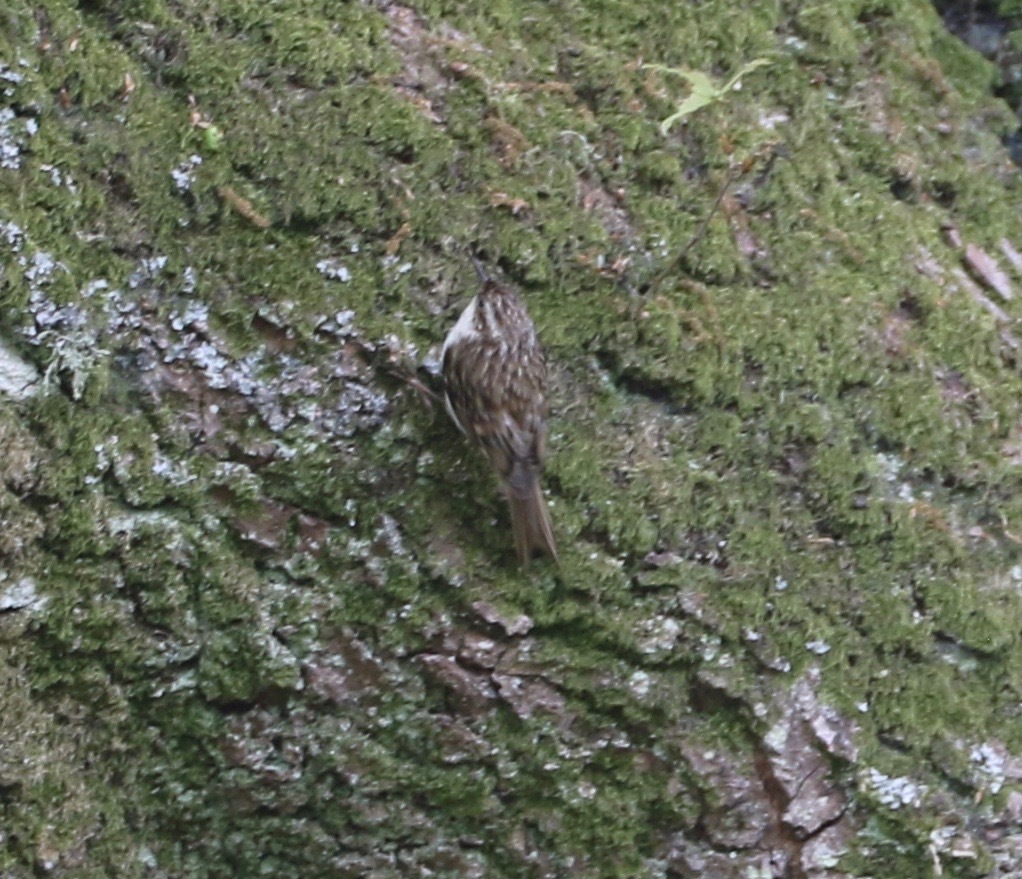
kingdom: Animalia
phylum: Chordata
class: Aves
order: Passeriformes
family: Certhiidae
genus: Certhia
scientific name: Certhia familiaris
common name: Eurasian treecreeper
